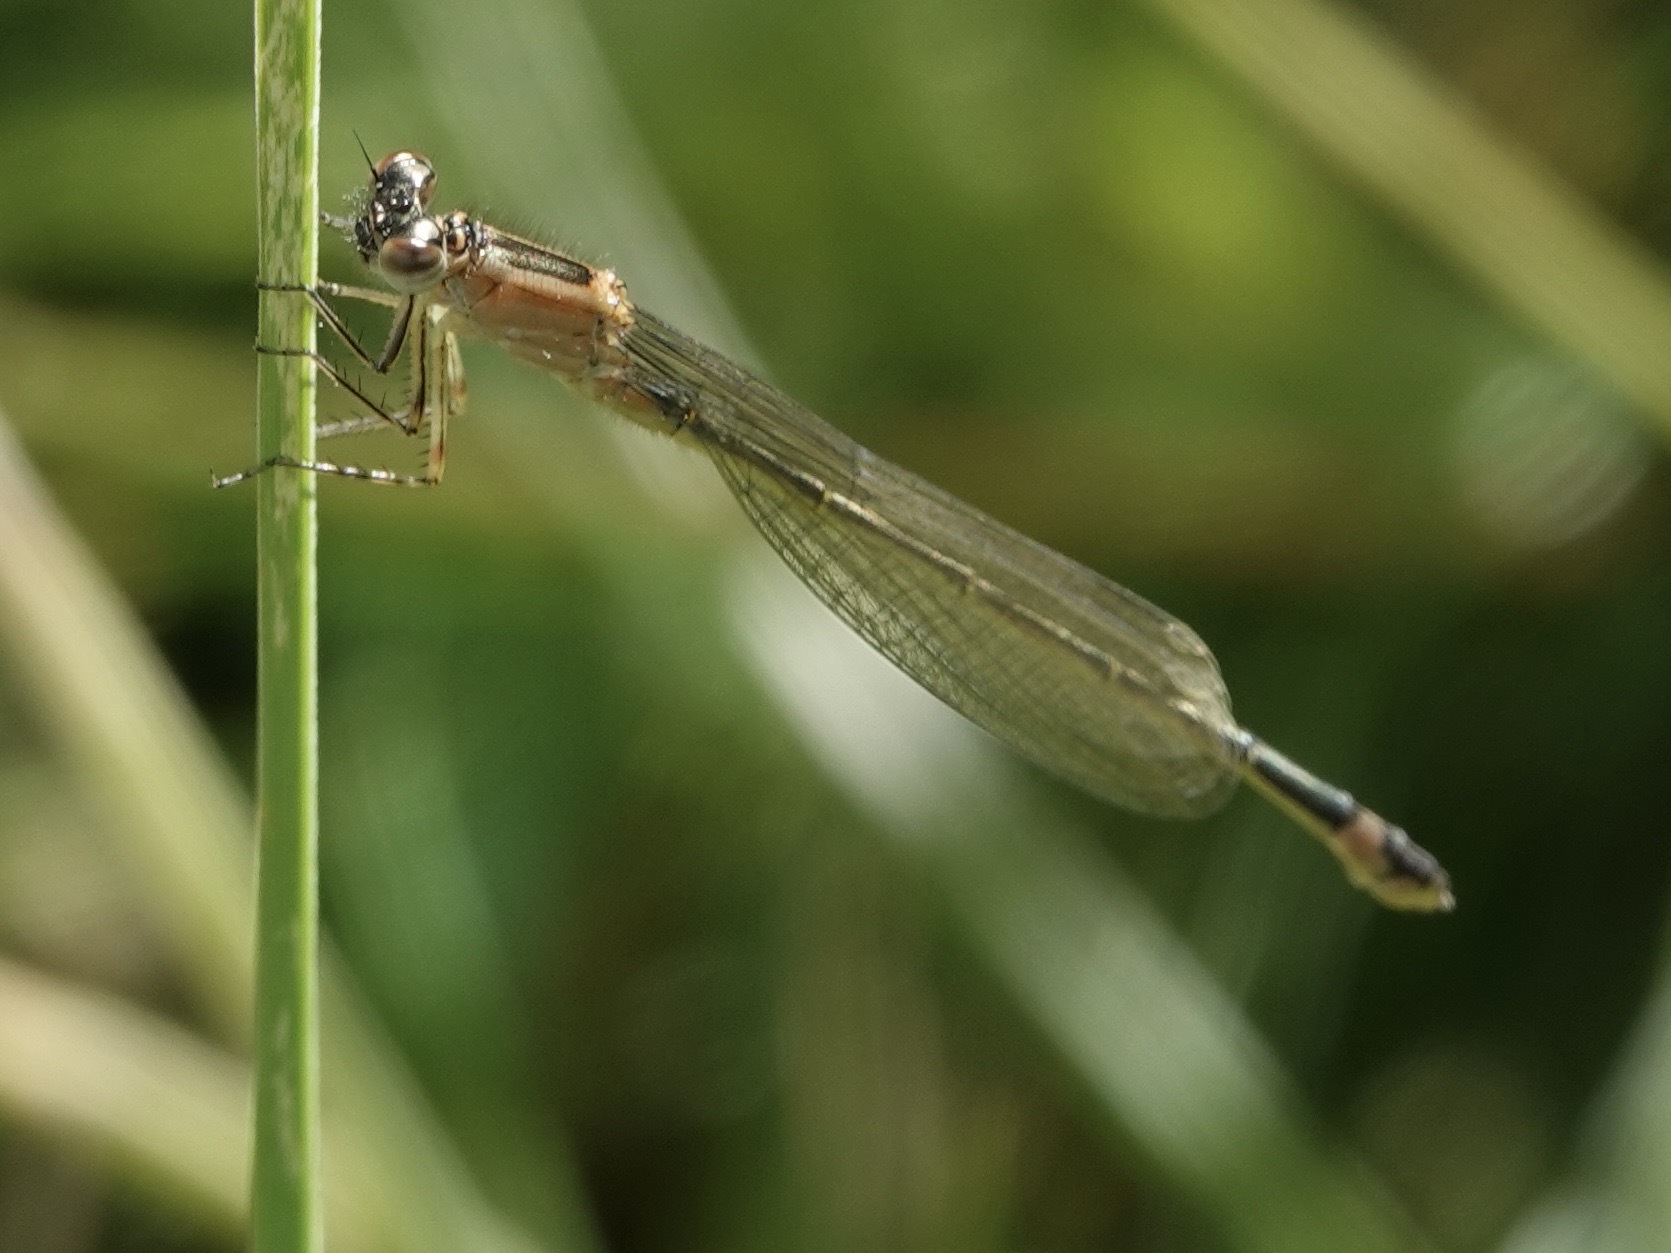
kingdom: Animalia
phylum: Arthropoda
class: Insecta
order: Odonata
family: Coenagrionidae
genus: Ischnura
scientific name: Ischnura elegans
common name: Blue-tailed damselfly
